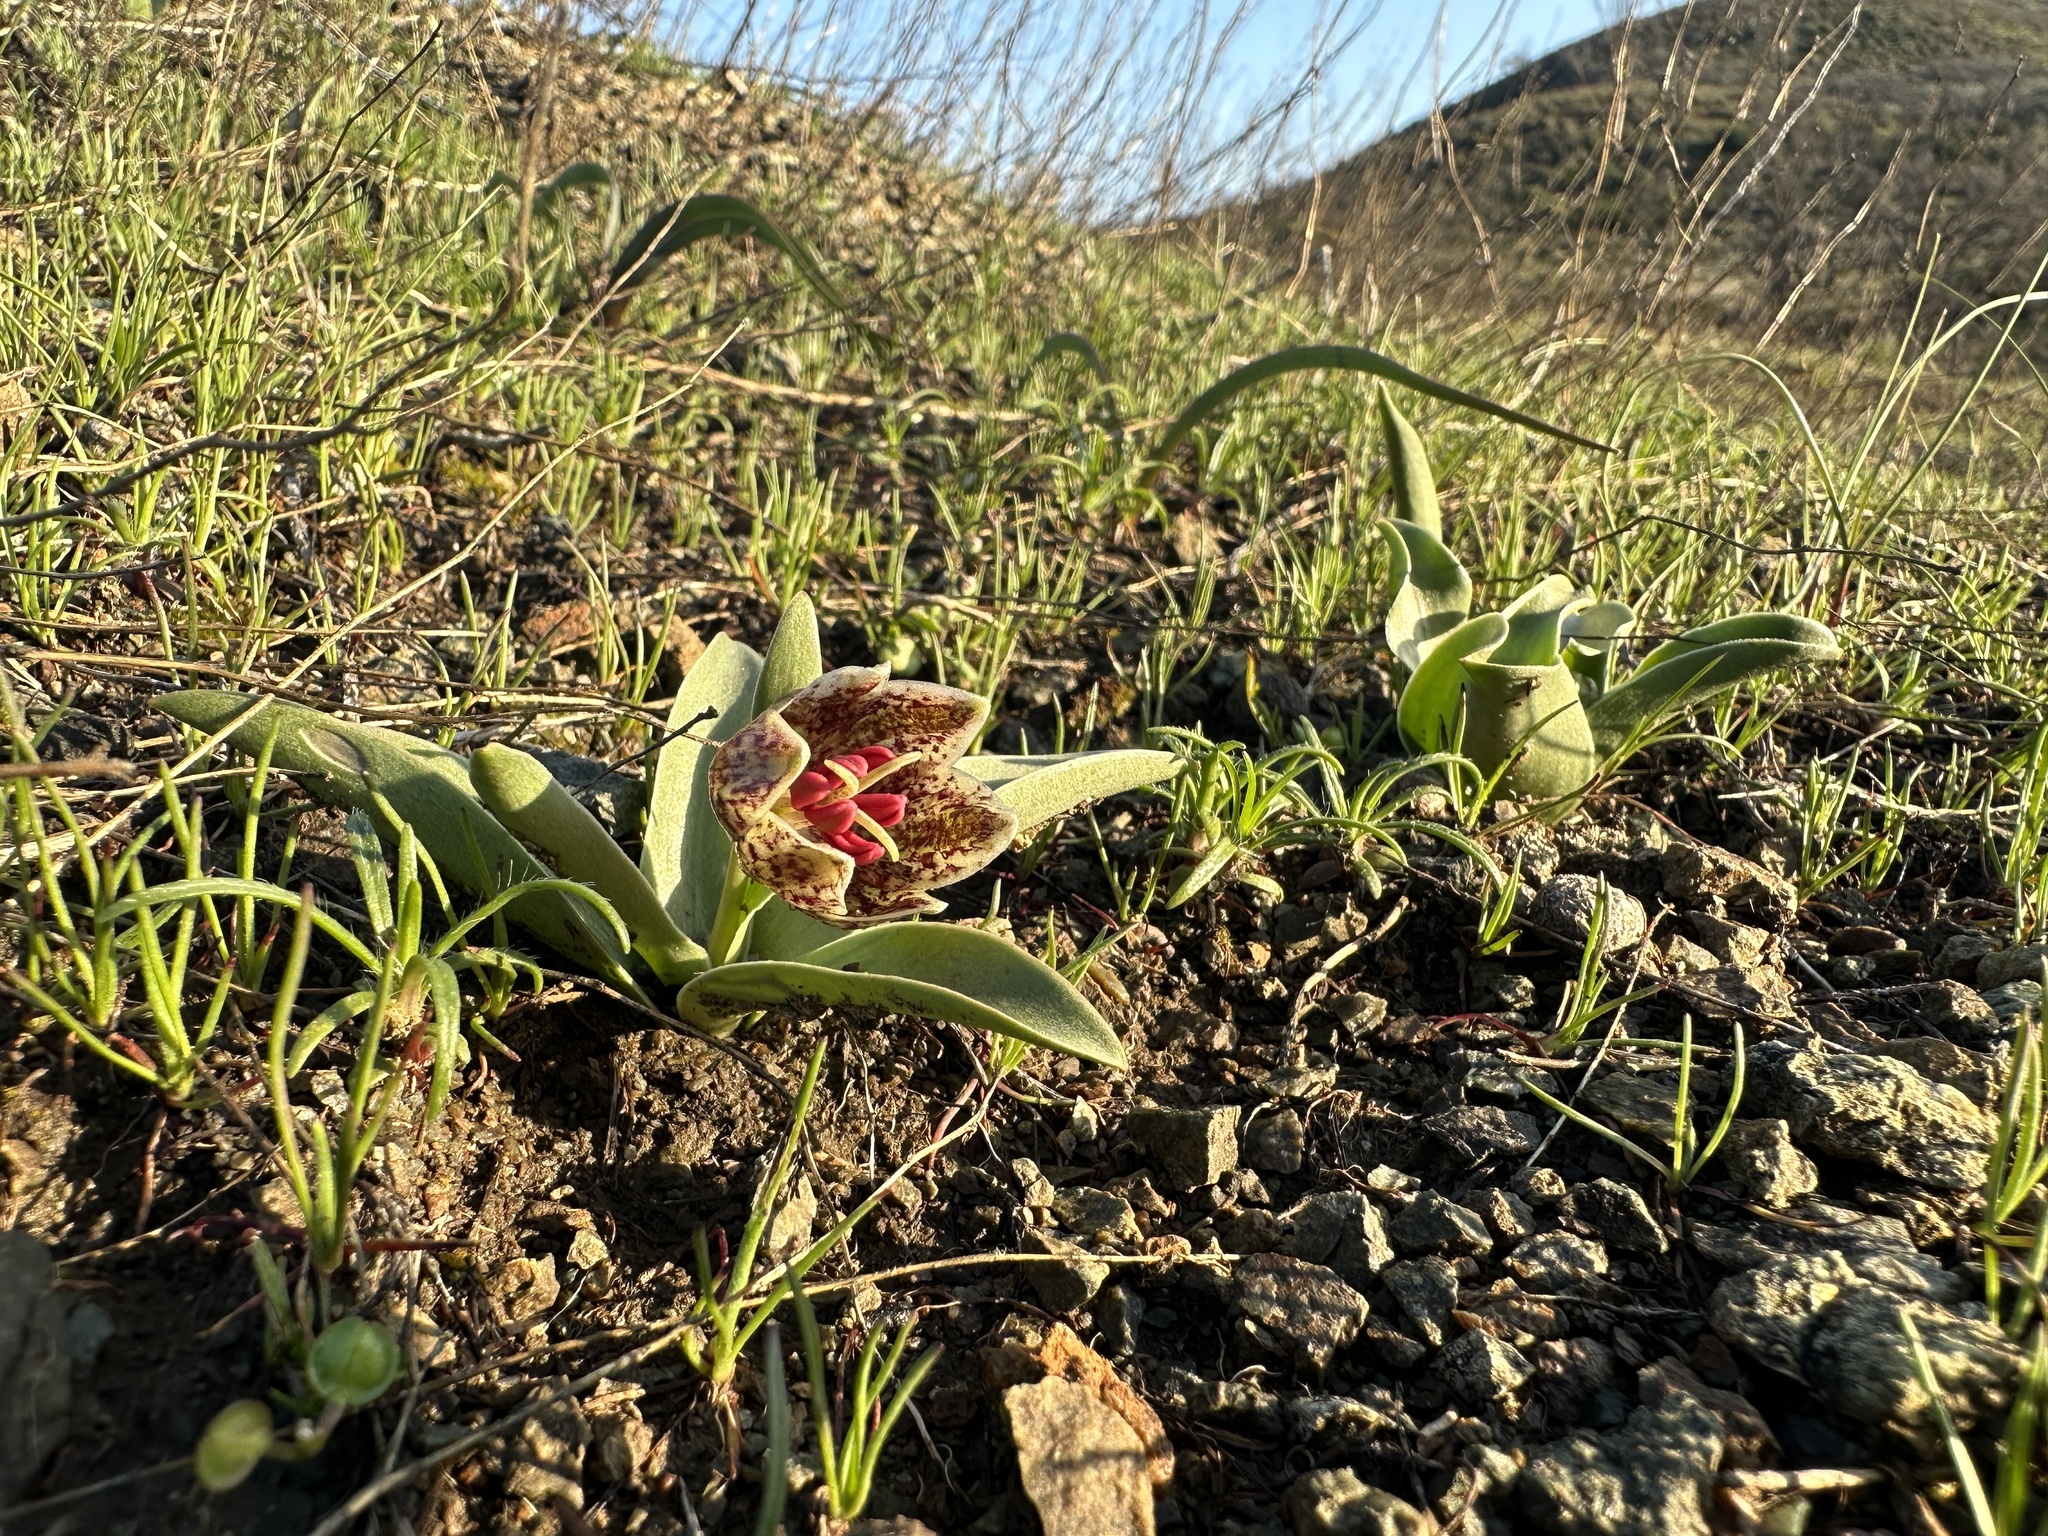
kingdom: Plantae
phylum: Tracheophyta
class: Liliopsida
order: Liliales
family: Liliaceae
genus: Fritillaria
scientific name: Fritillaria purdyi
